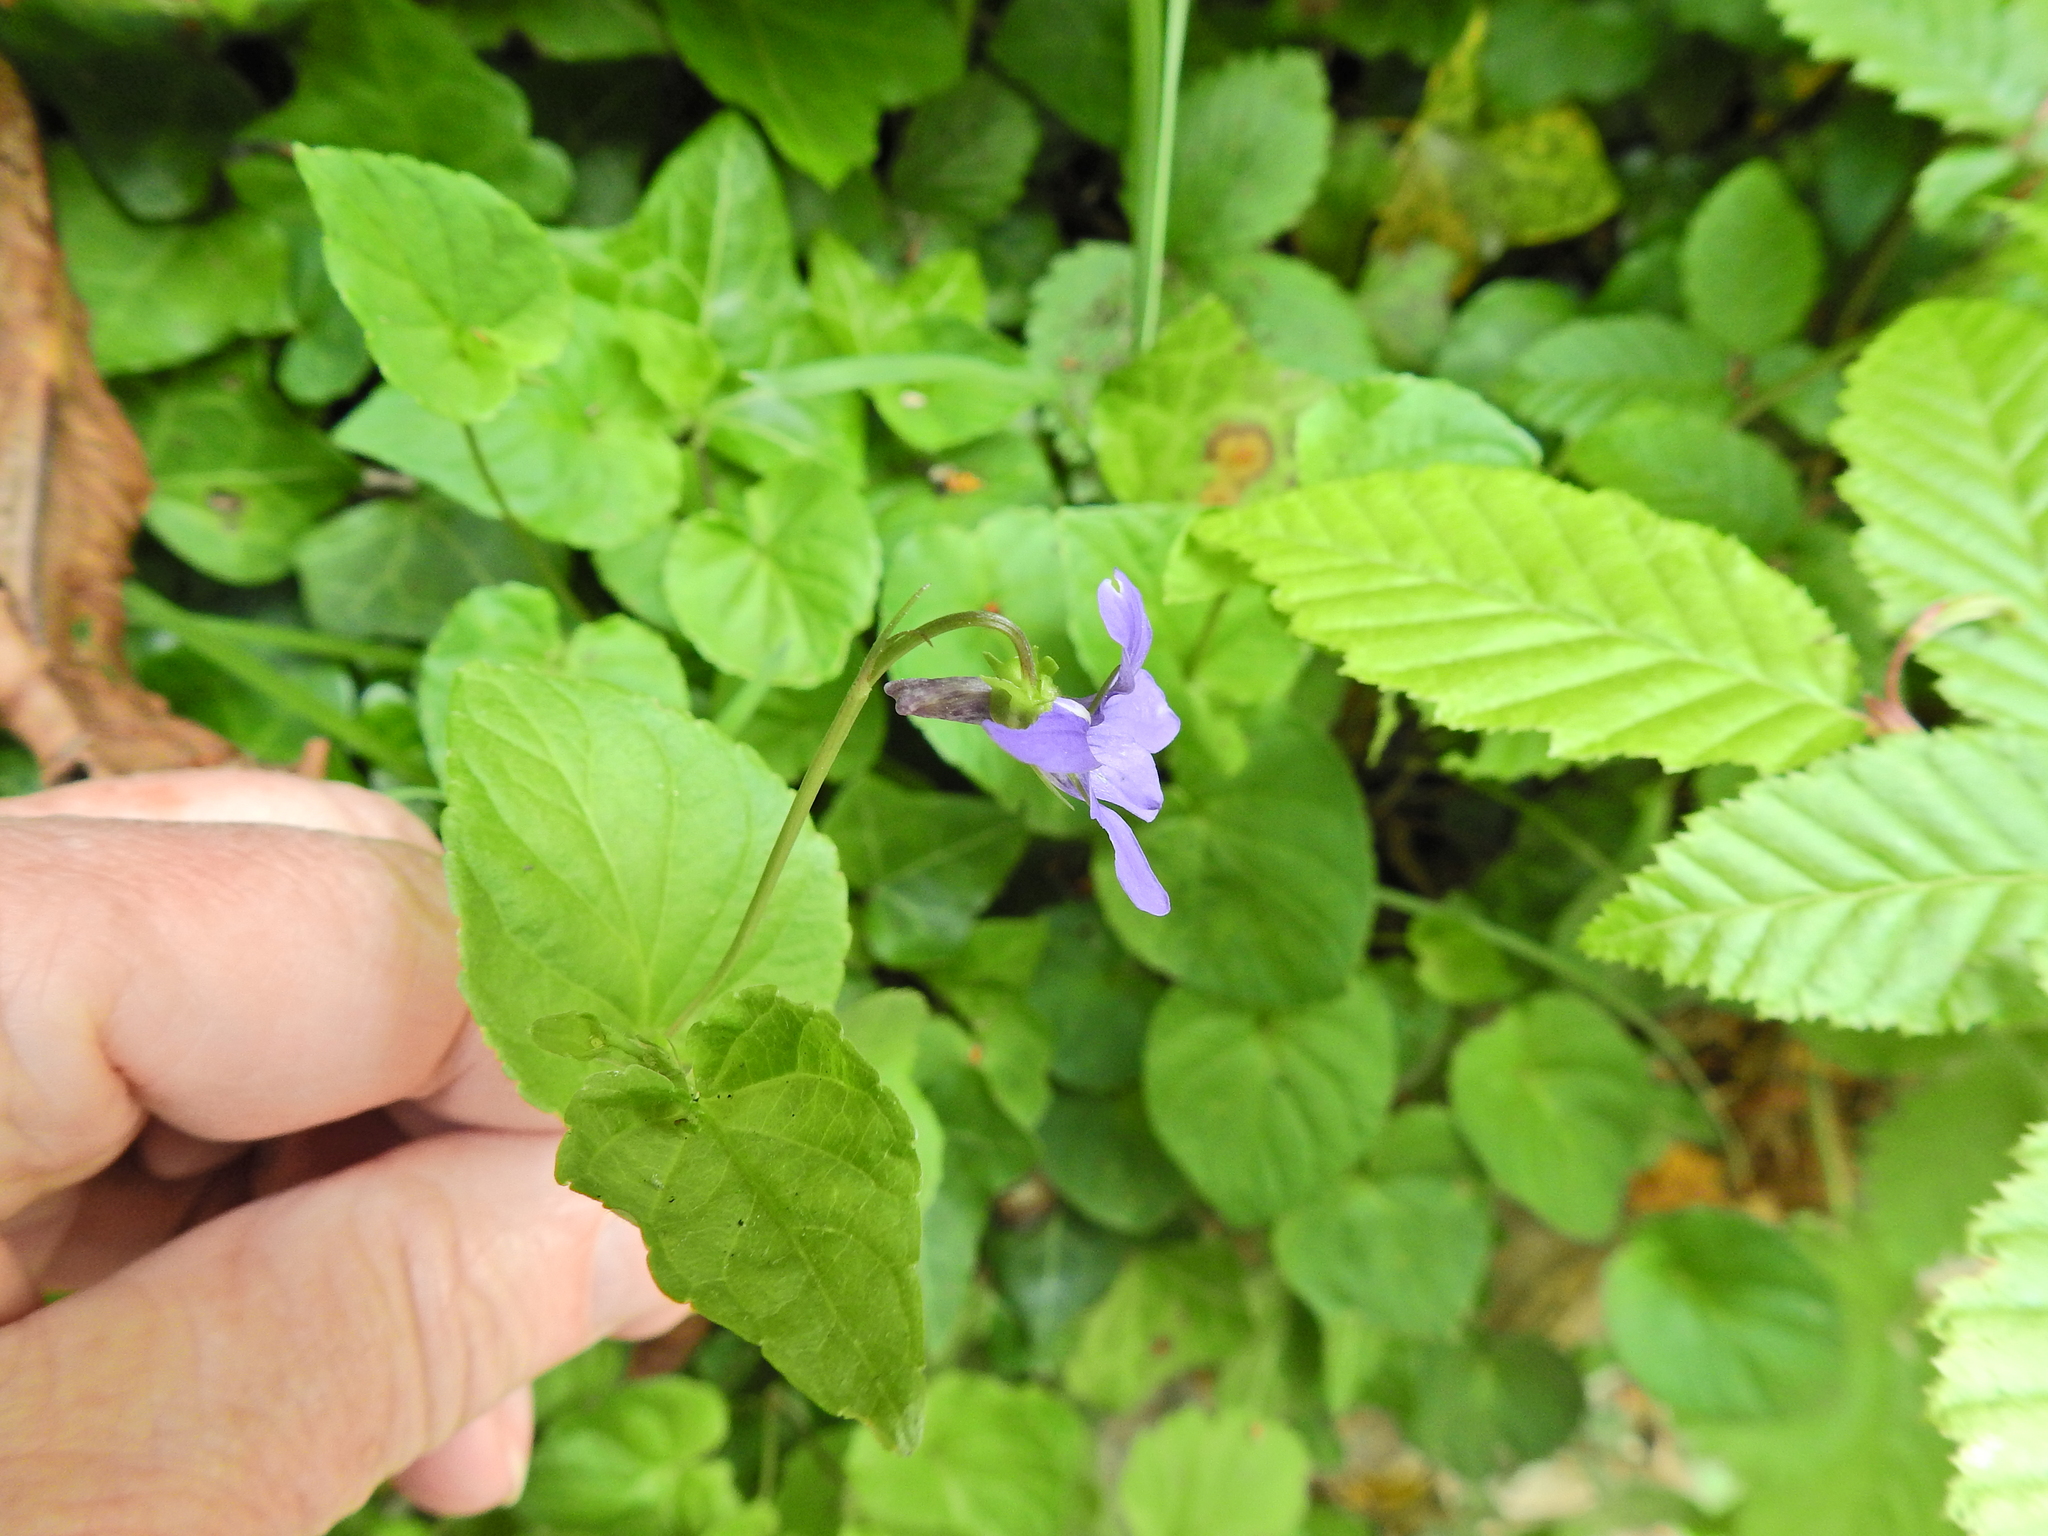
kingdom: Plantae
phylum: Tracheophyta
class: Magnoliopsida
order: Malpighiales
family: Violaceae
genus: Viola
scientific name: Viola riviniana
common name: Common dog-violet
